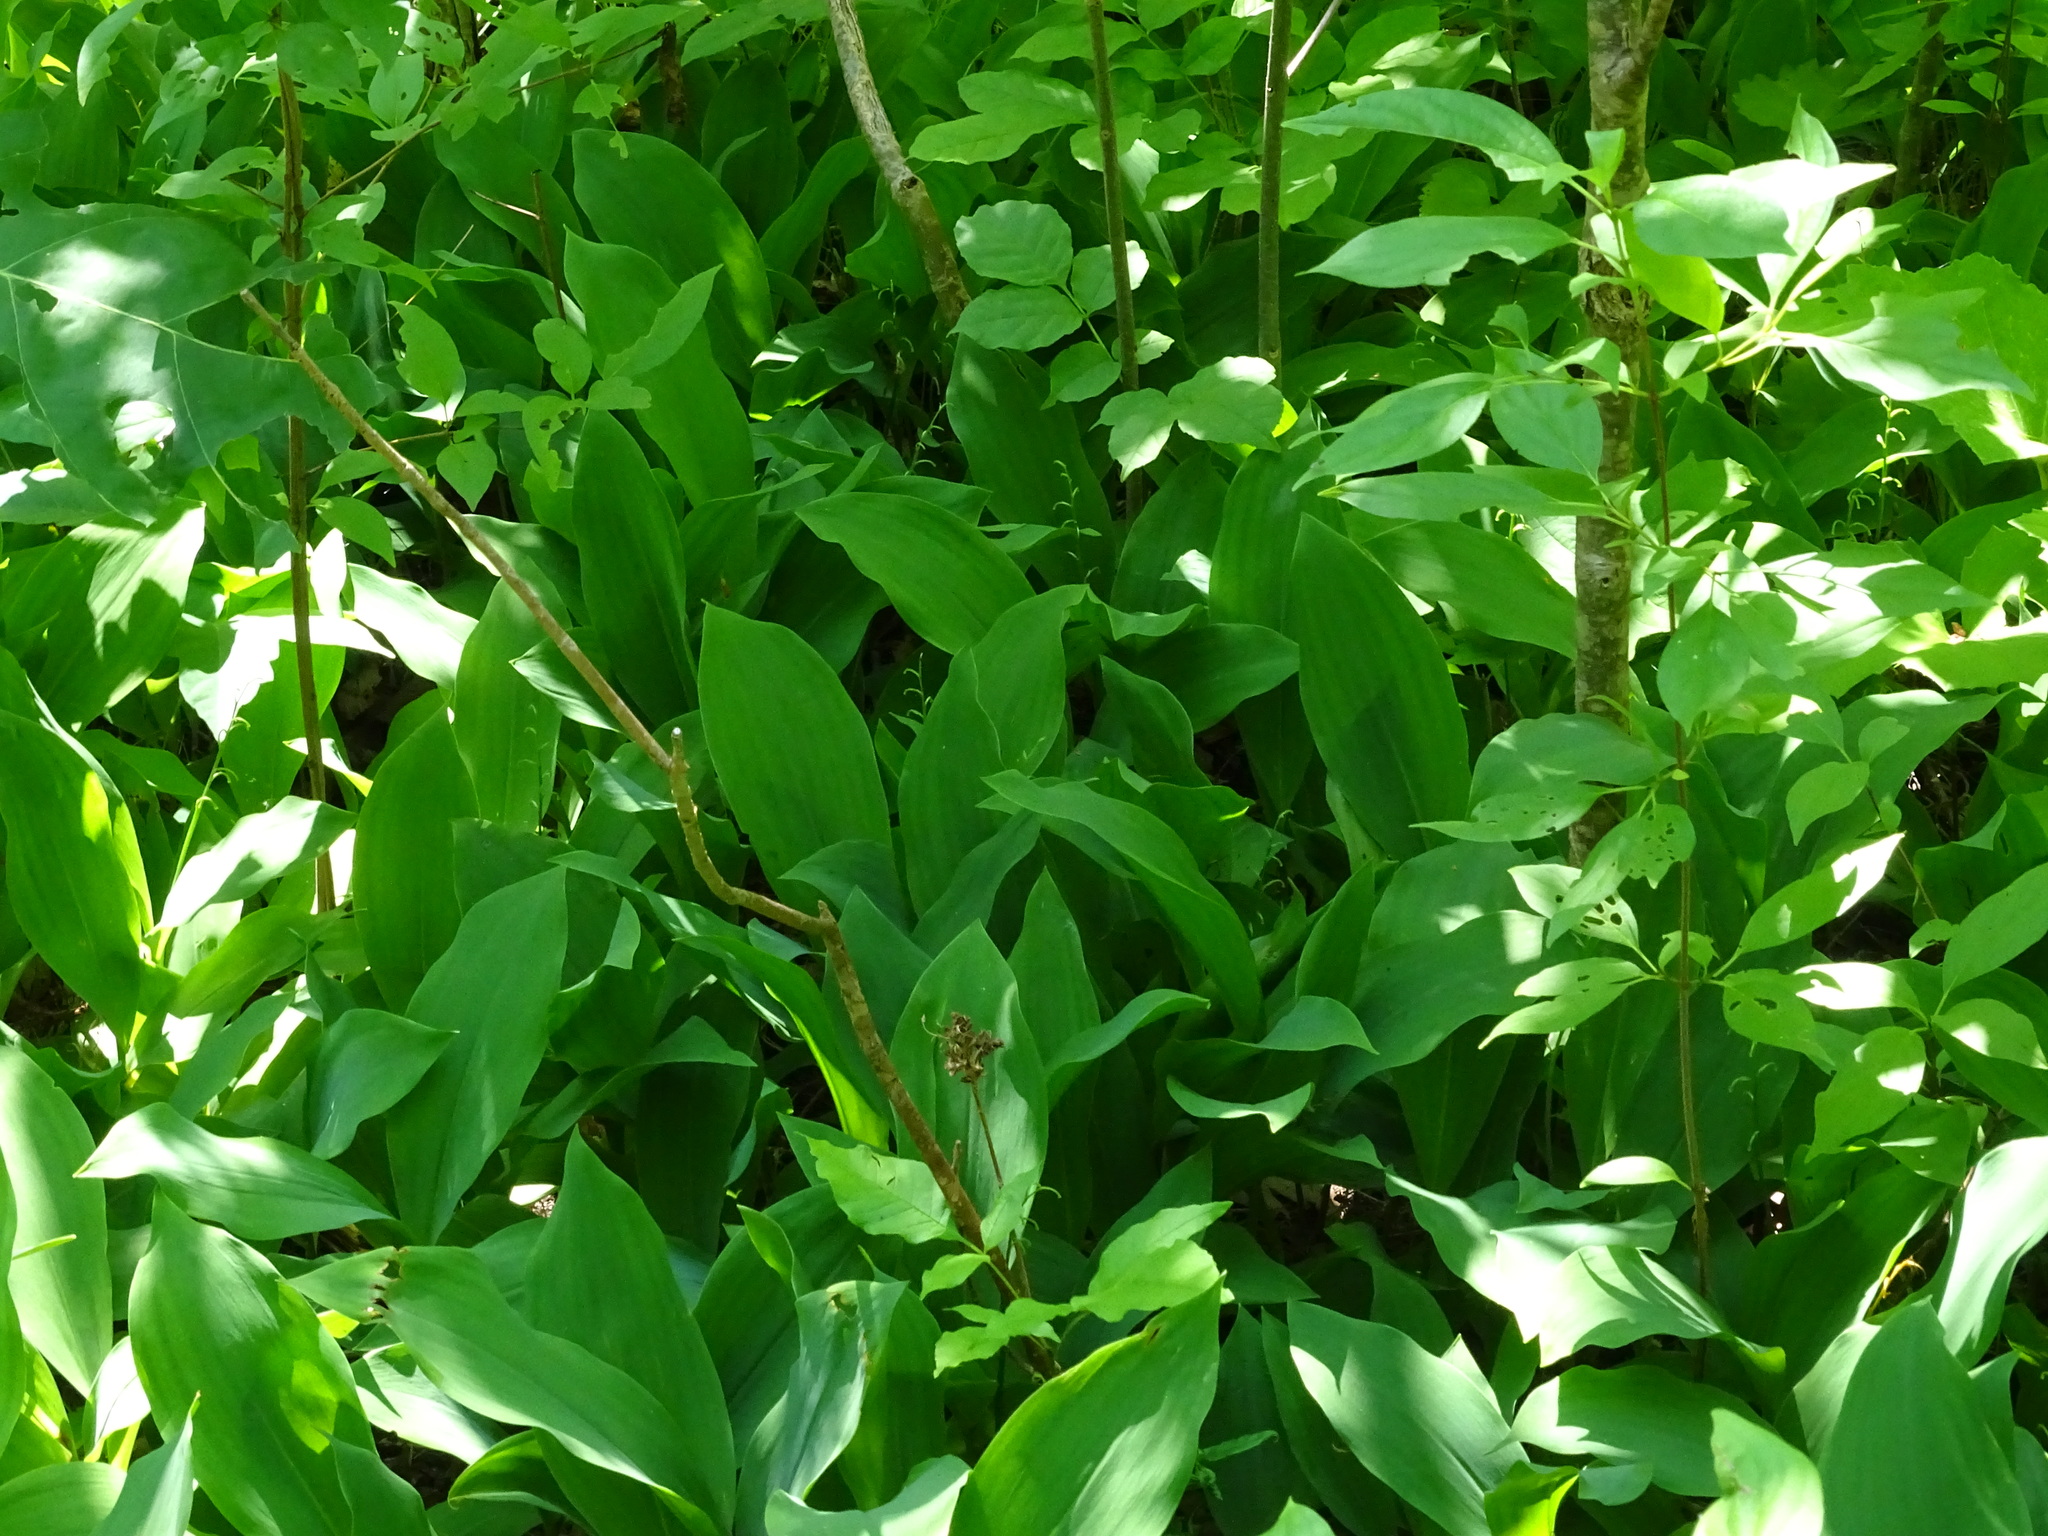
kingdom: Plantae
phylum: Tracheophyta
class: Liliopsida
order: Asparagales
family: Asparagaceae
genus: Convallaria
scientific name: Convallaria majalis
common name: Lily-of-the-valley
